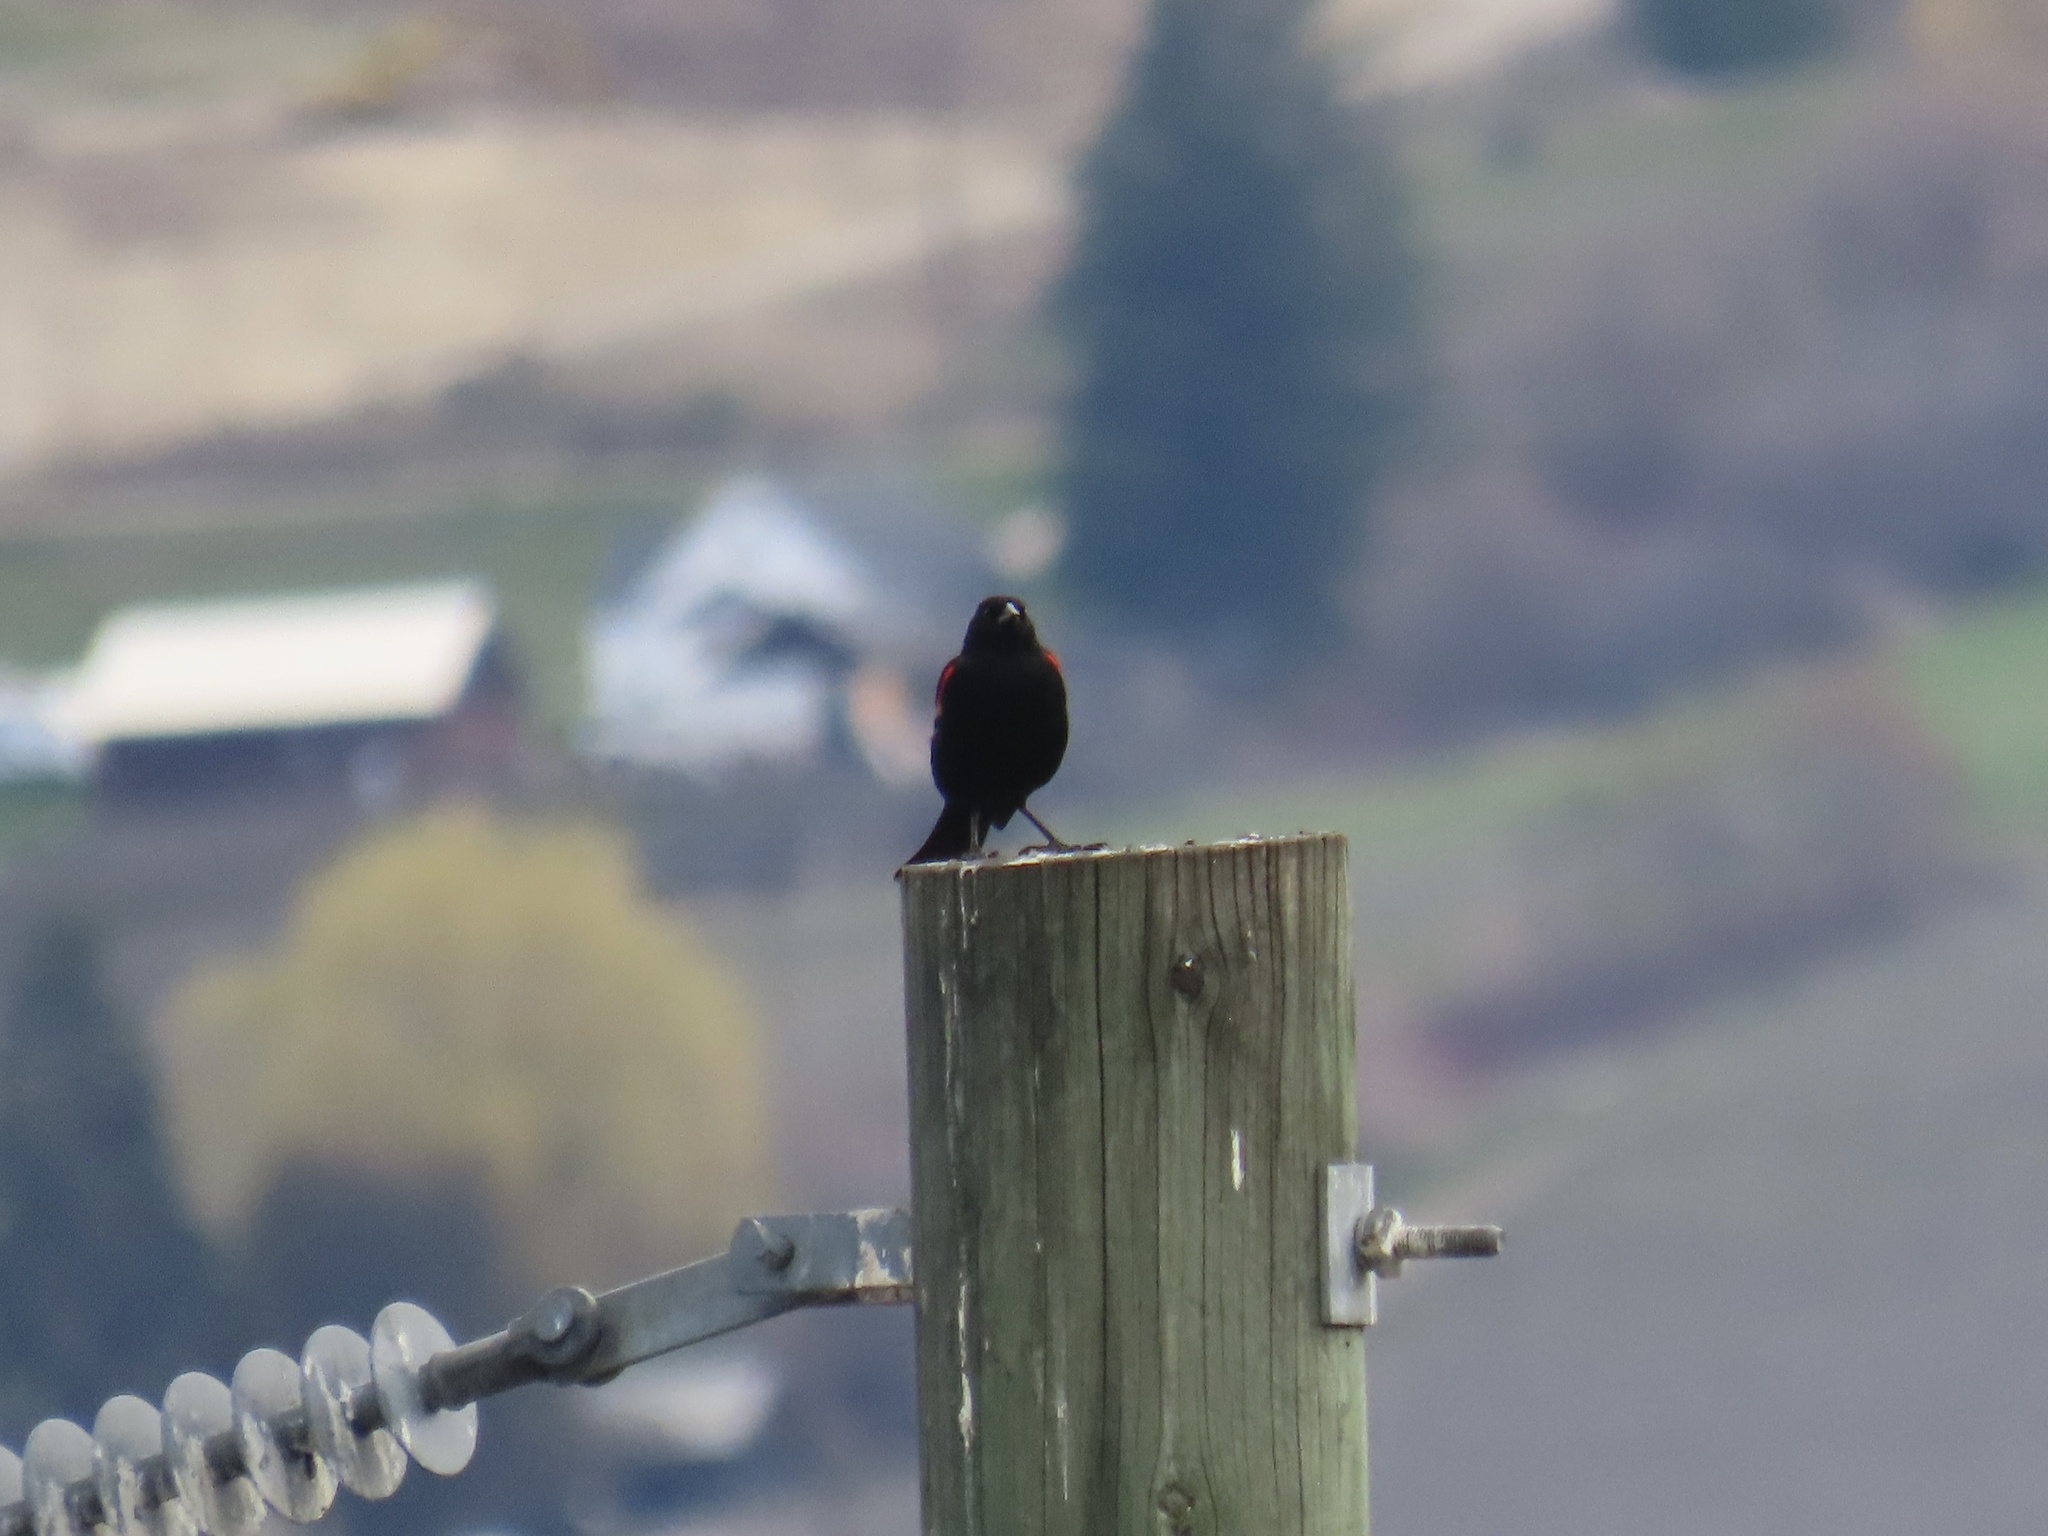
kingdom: Animalia
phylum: Chordata
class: Aves
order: Passeriformes
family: Icteridae
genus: Agelaius
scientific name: Agelaius phoeniceus
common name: Red-winged blackbird
